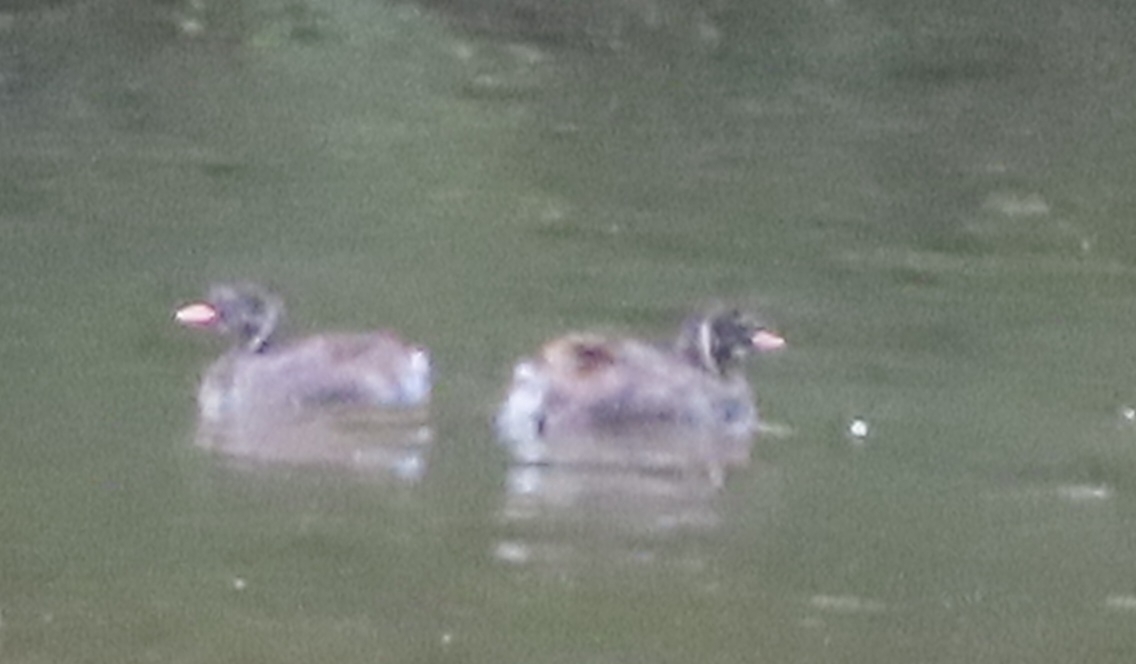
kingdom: Animalia
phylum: Chordata
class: Aves
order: Podicipediformes
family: Podicipedidae
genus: Tachybaptus
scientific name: Tachybaptus ruficollis
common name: Little grebe
